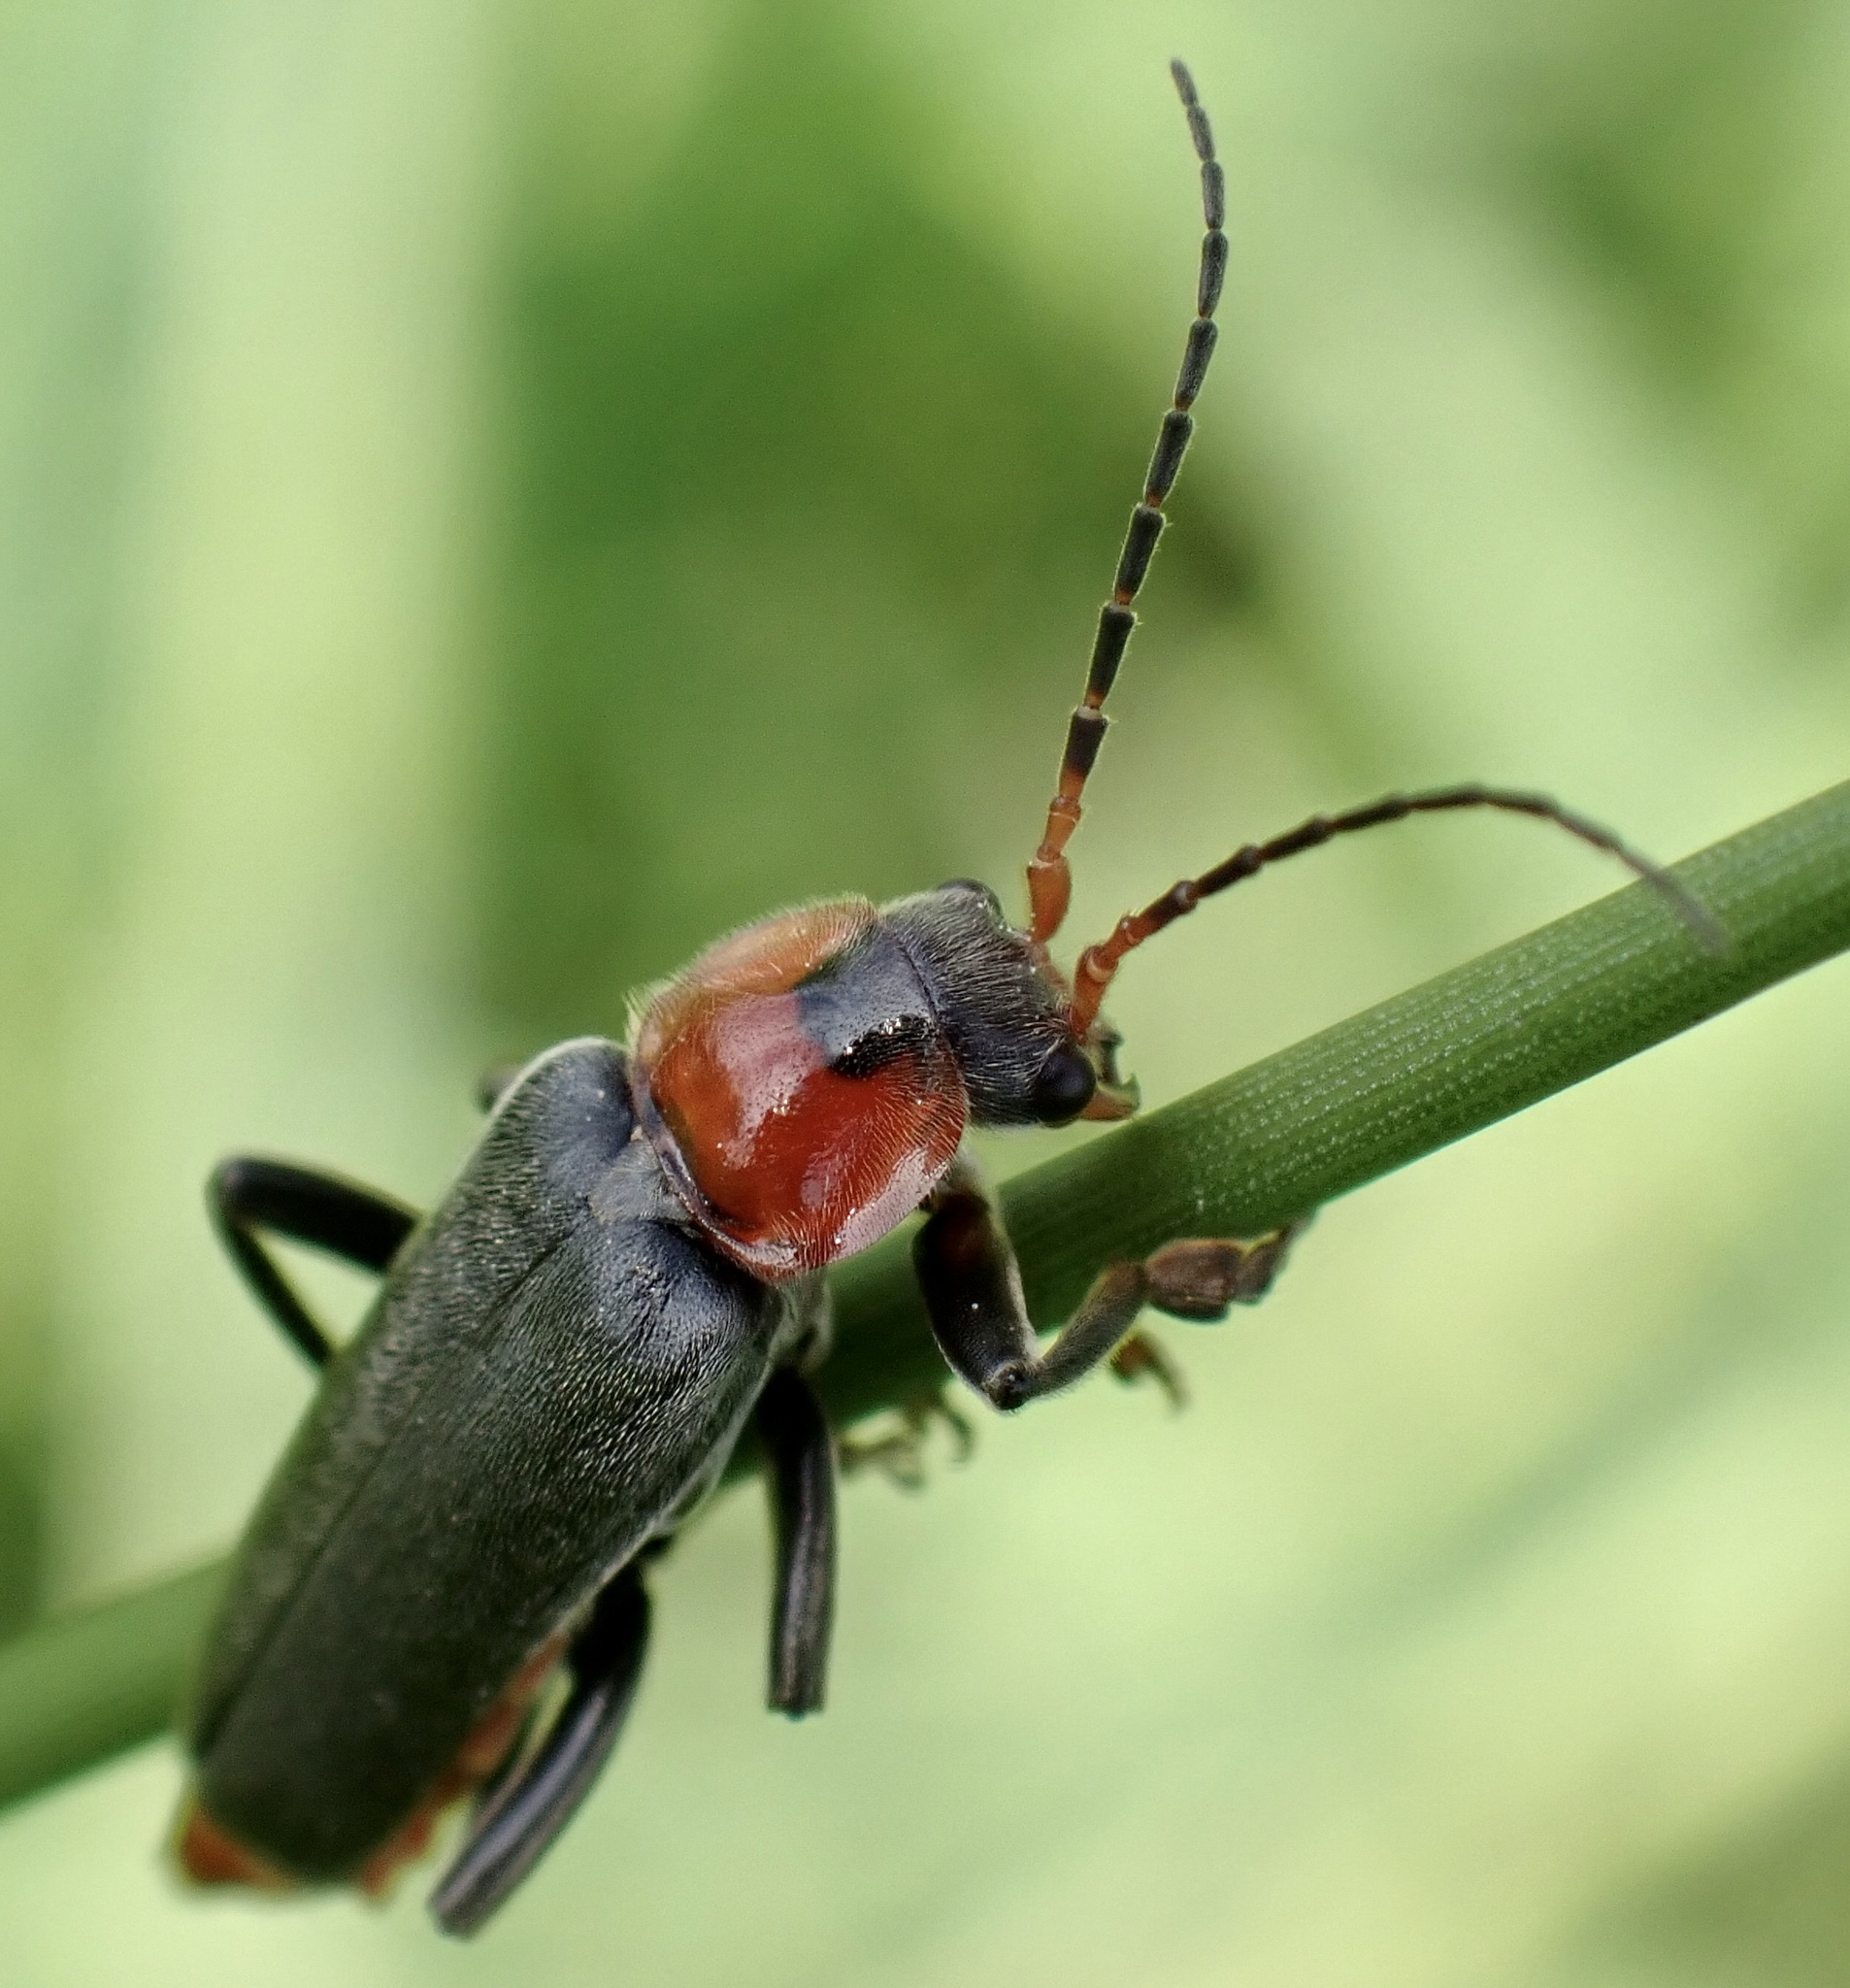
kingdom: Animalia
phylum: Arthropoda
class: Insecta
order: Coleoptera
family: Cantharidae
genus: Cantharis
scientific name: Cantharis fusca
